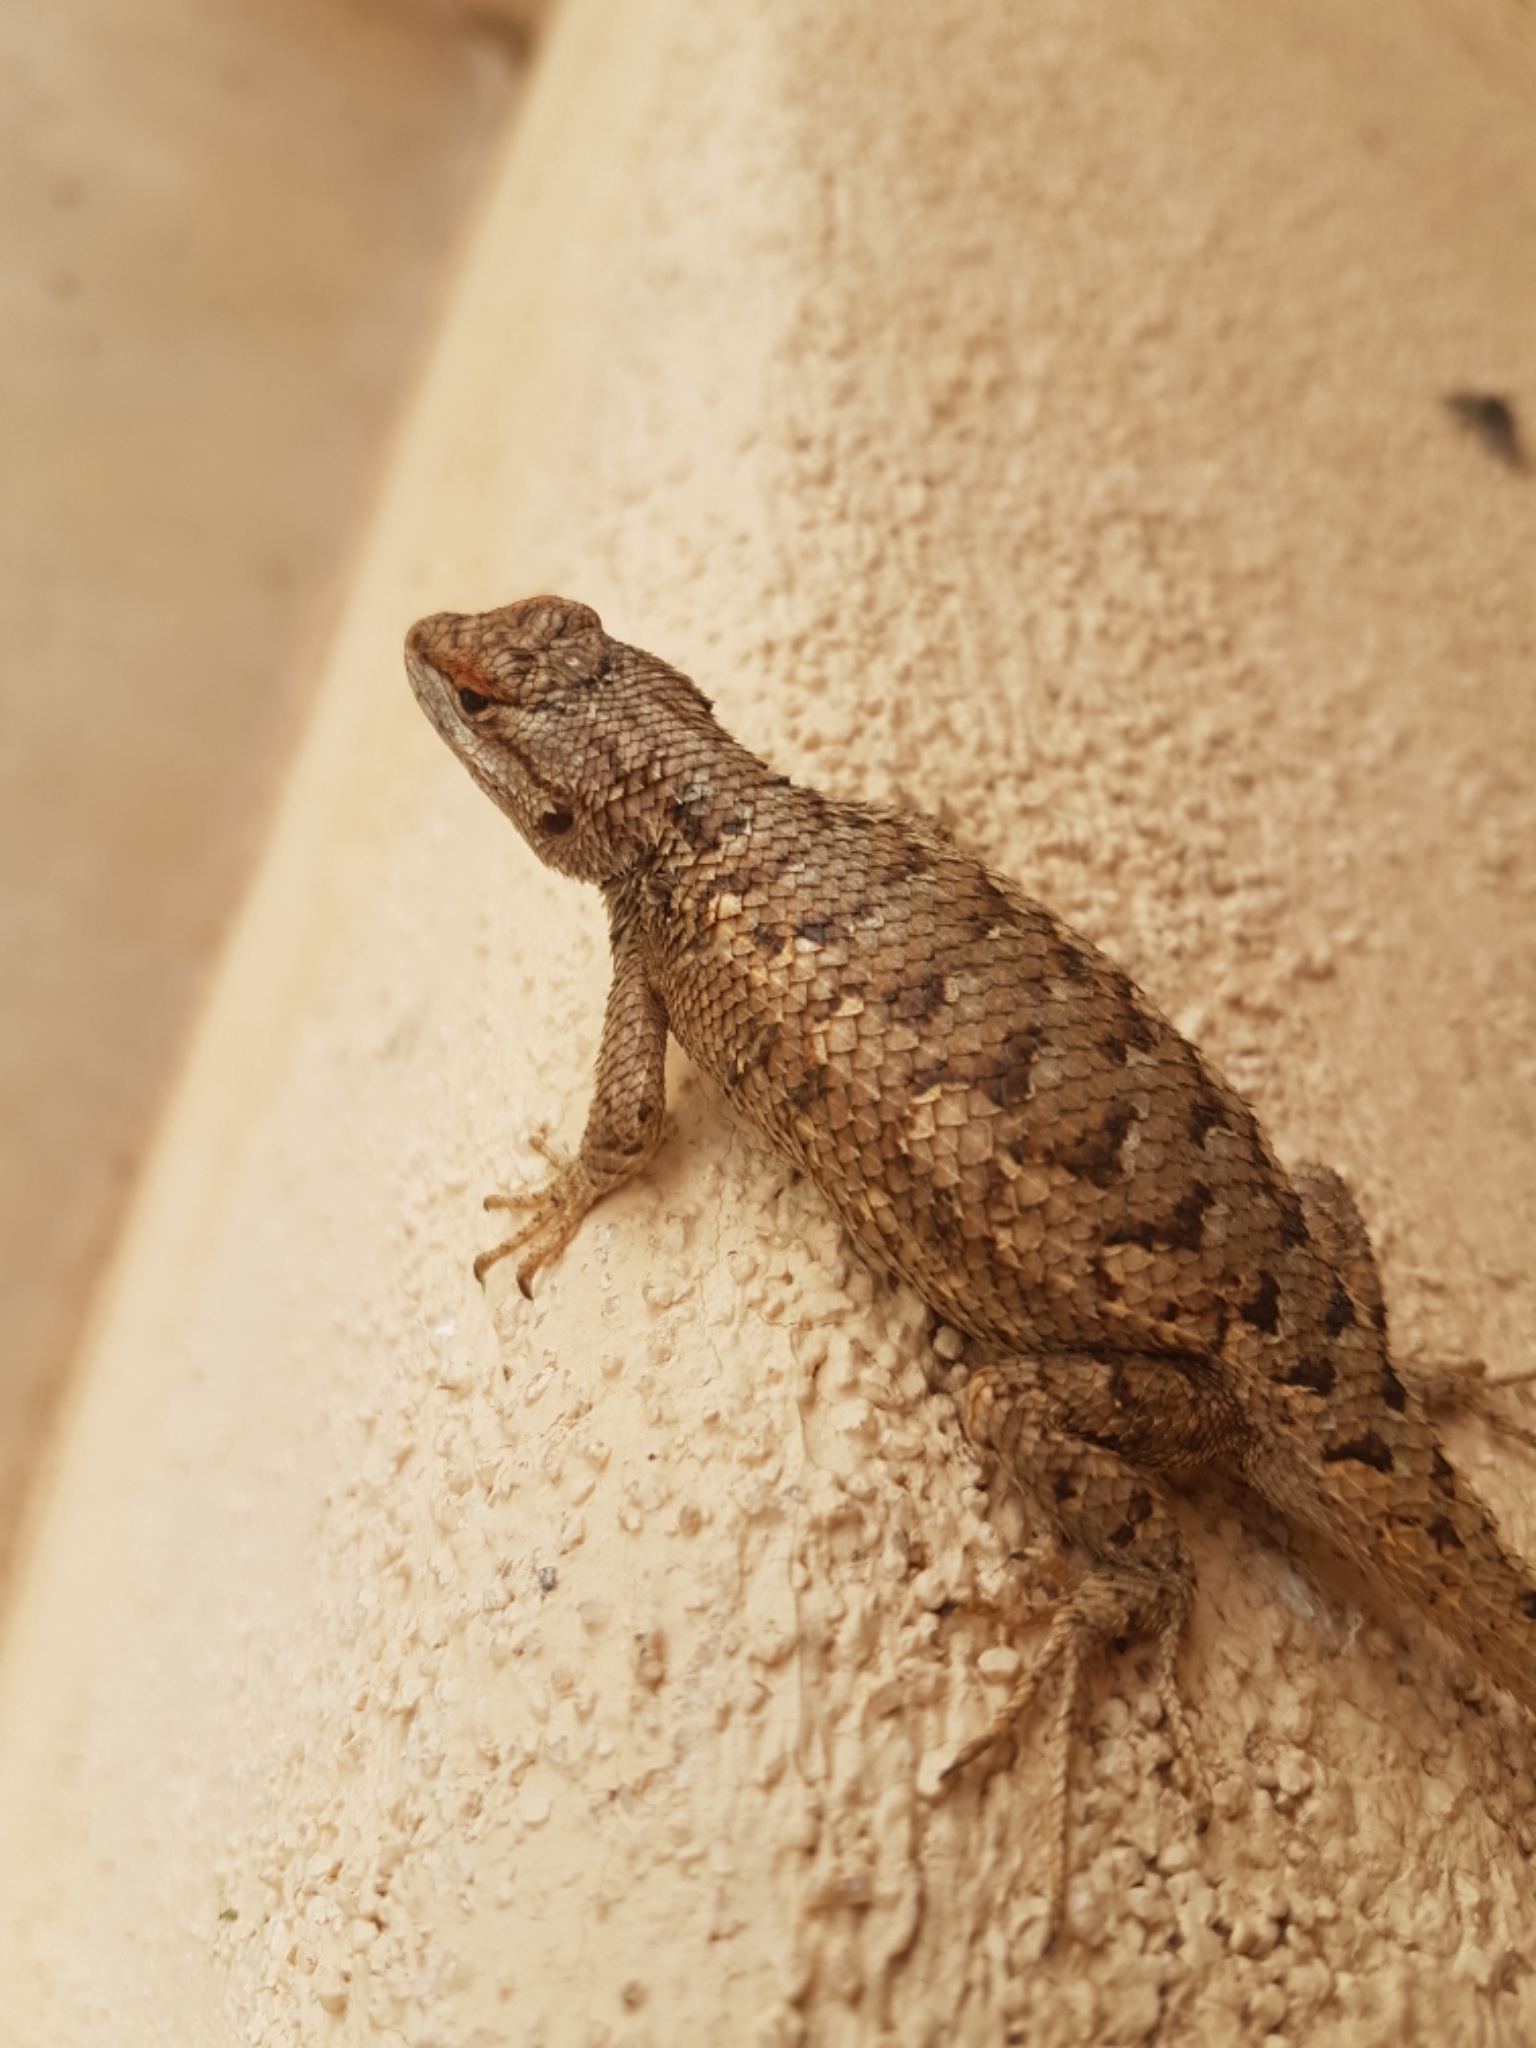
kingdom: Animalia
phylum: Chordata
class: Squamata
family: Phrynosomatidae
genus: Sceloporus
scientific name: Sceloporus tristichus
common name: Plateau fence lizard
